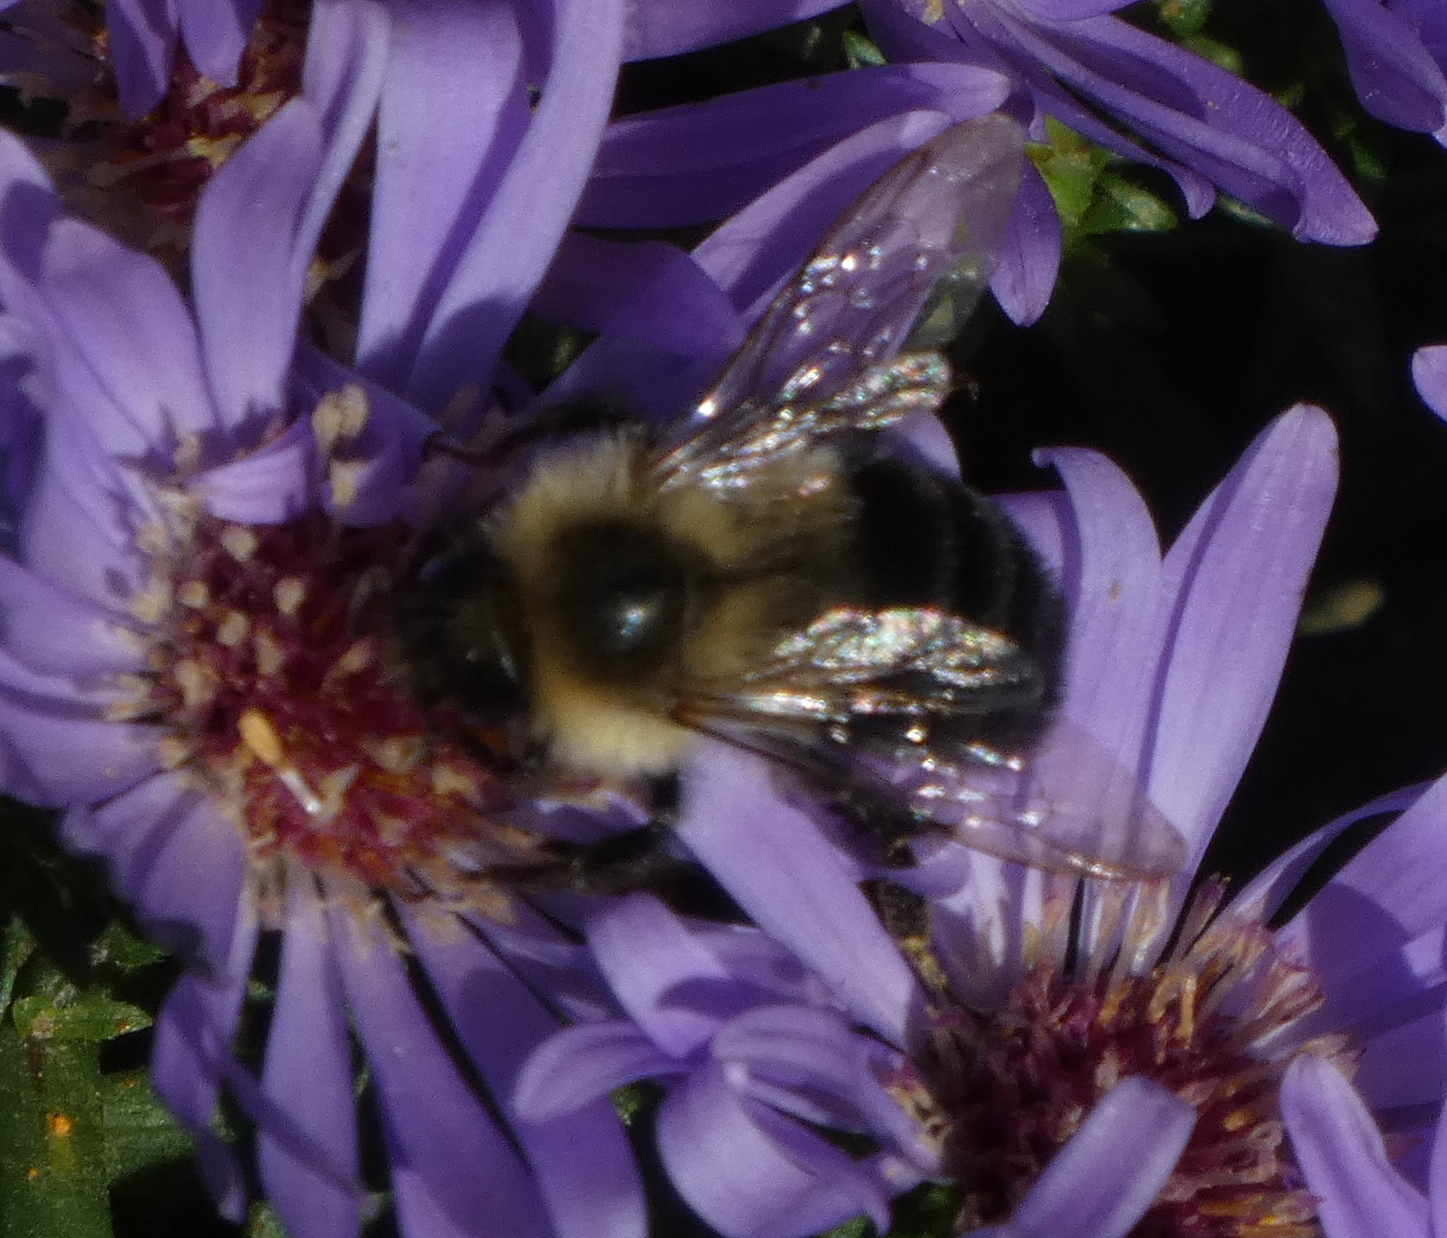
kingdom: Animalia
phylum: Arthropoda
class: Insecta
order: Hymenoptera
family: Apidae
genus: Bombus
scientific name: Bombus impatiens
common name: Common eastern bumble bee
